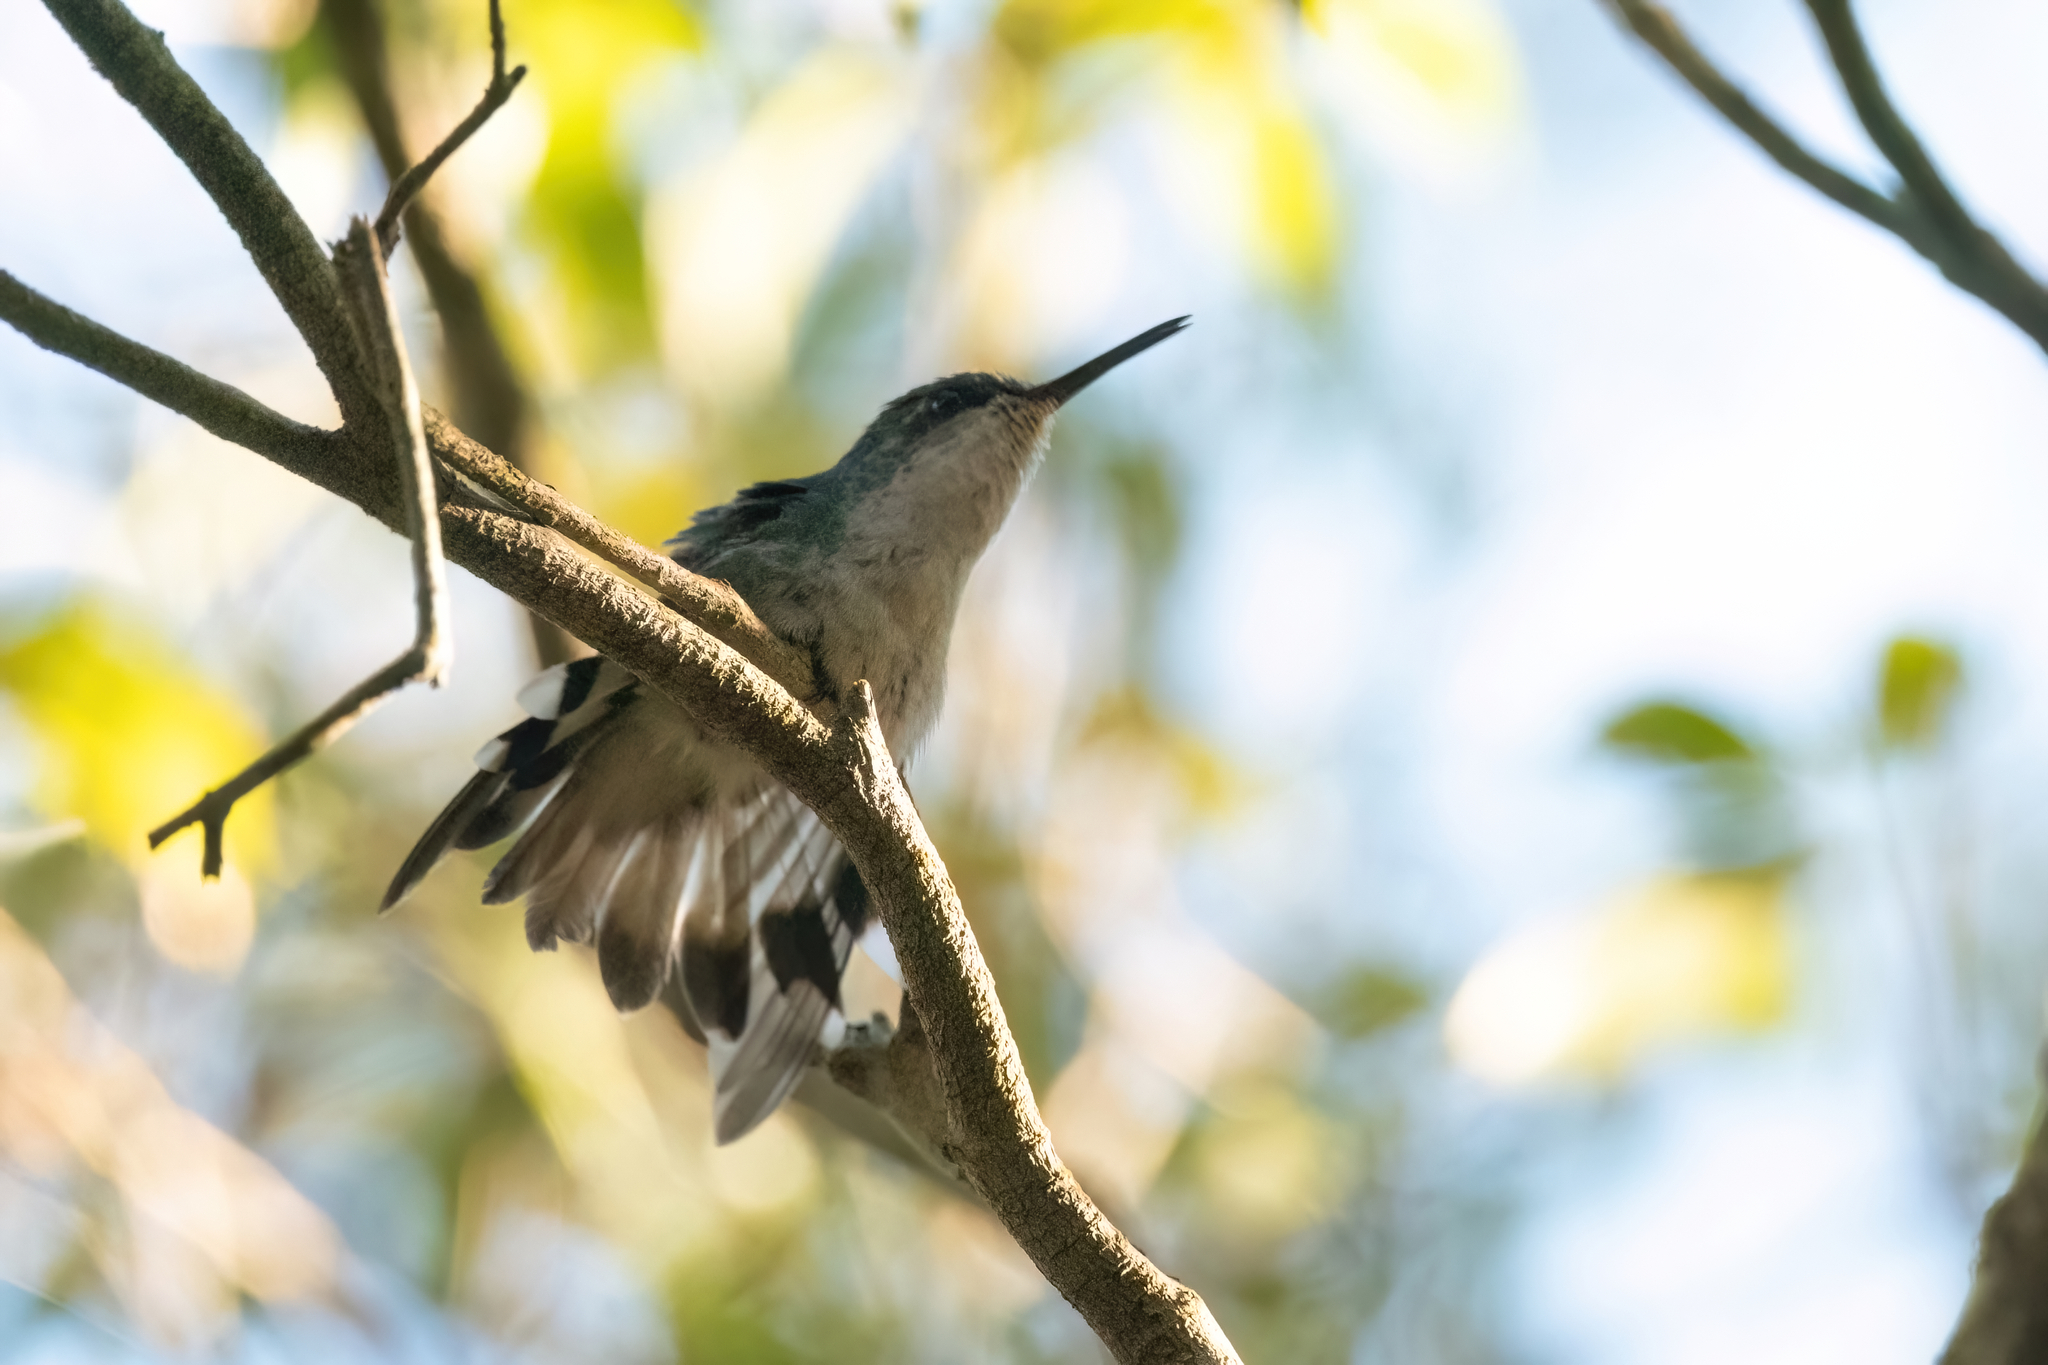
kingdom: Animalia
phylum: Chordata
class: Aves
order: Apodiformes
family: Trochilidae
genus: Riccordia
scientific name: Riccordia maugaeus
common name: Puerto rican emerald
